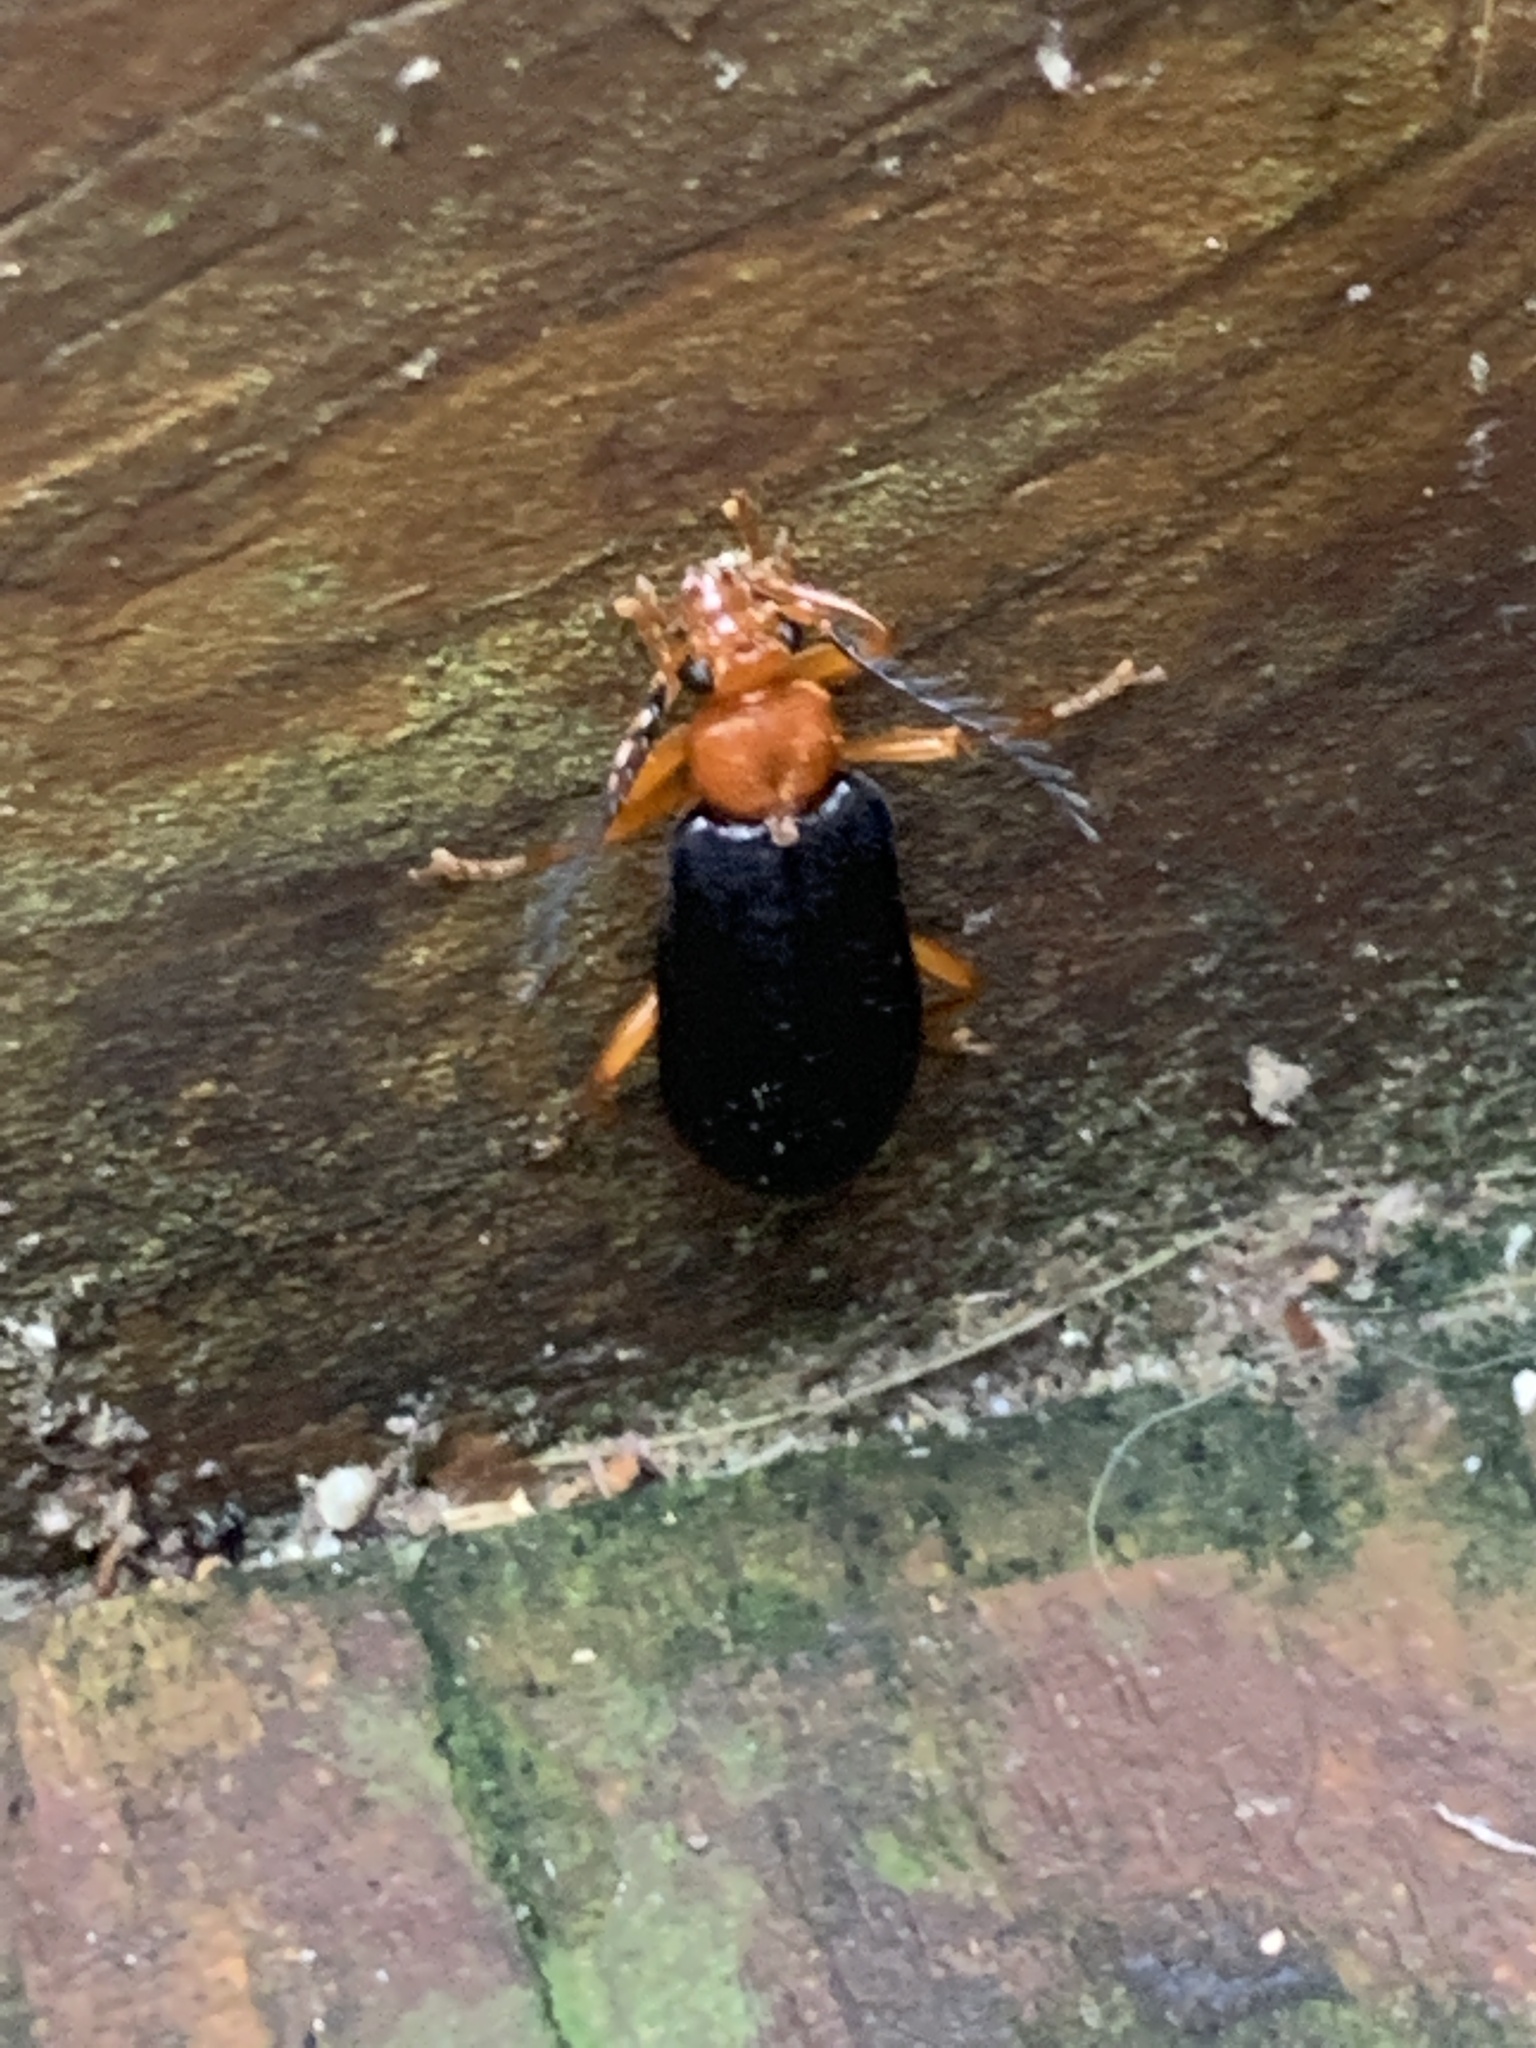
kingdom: Animalia
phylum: Arthropoda
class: Insecta
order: Coleoptera
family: Pyrochroidae
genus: Neopyrochroa
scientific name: Neopyrochroa flabellata
